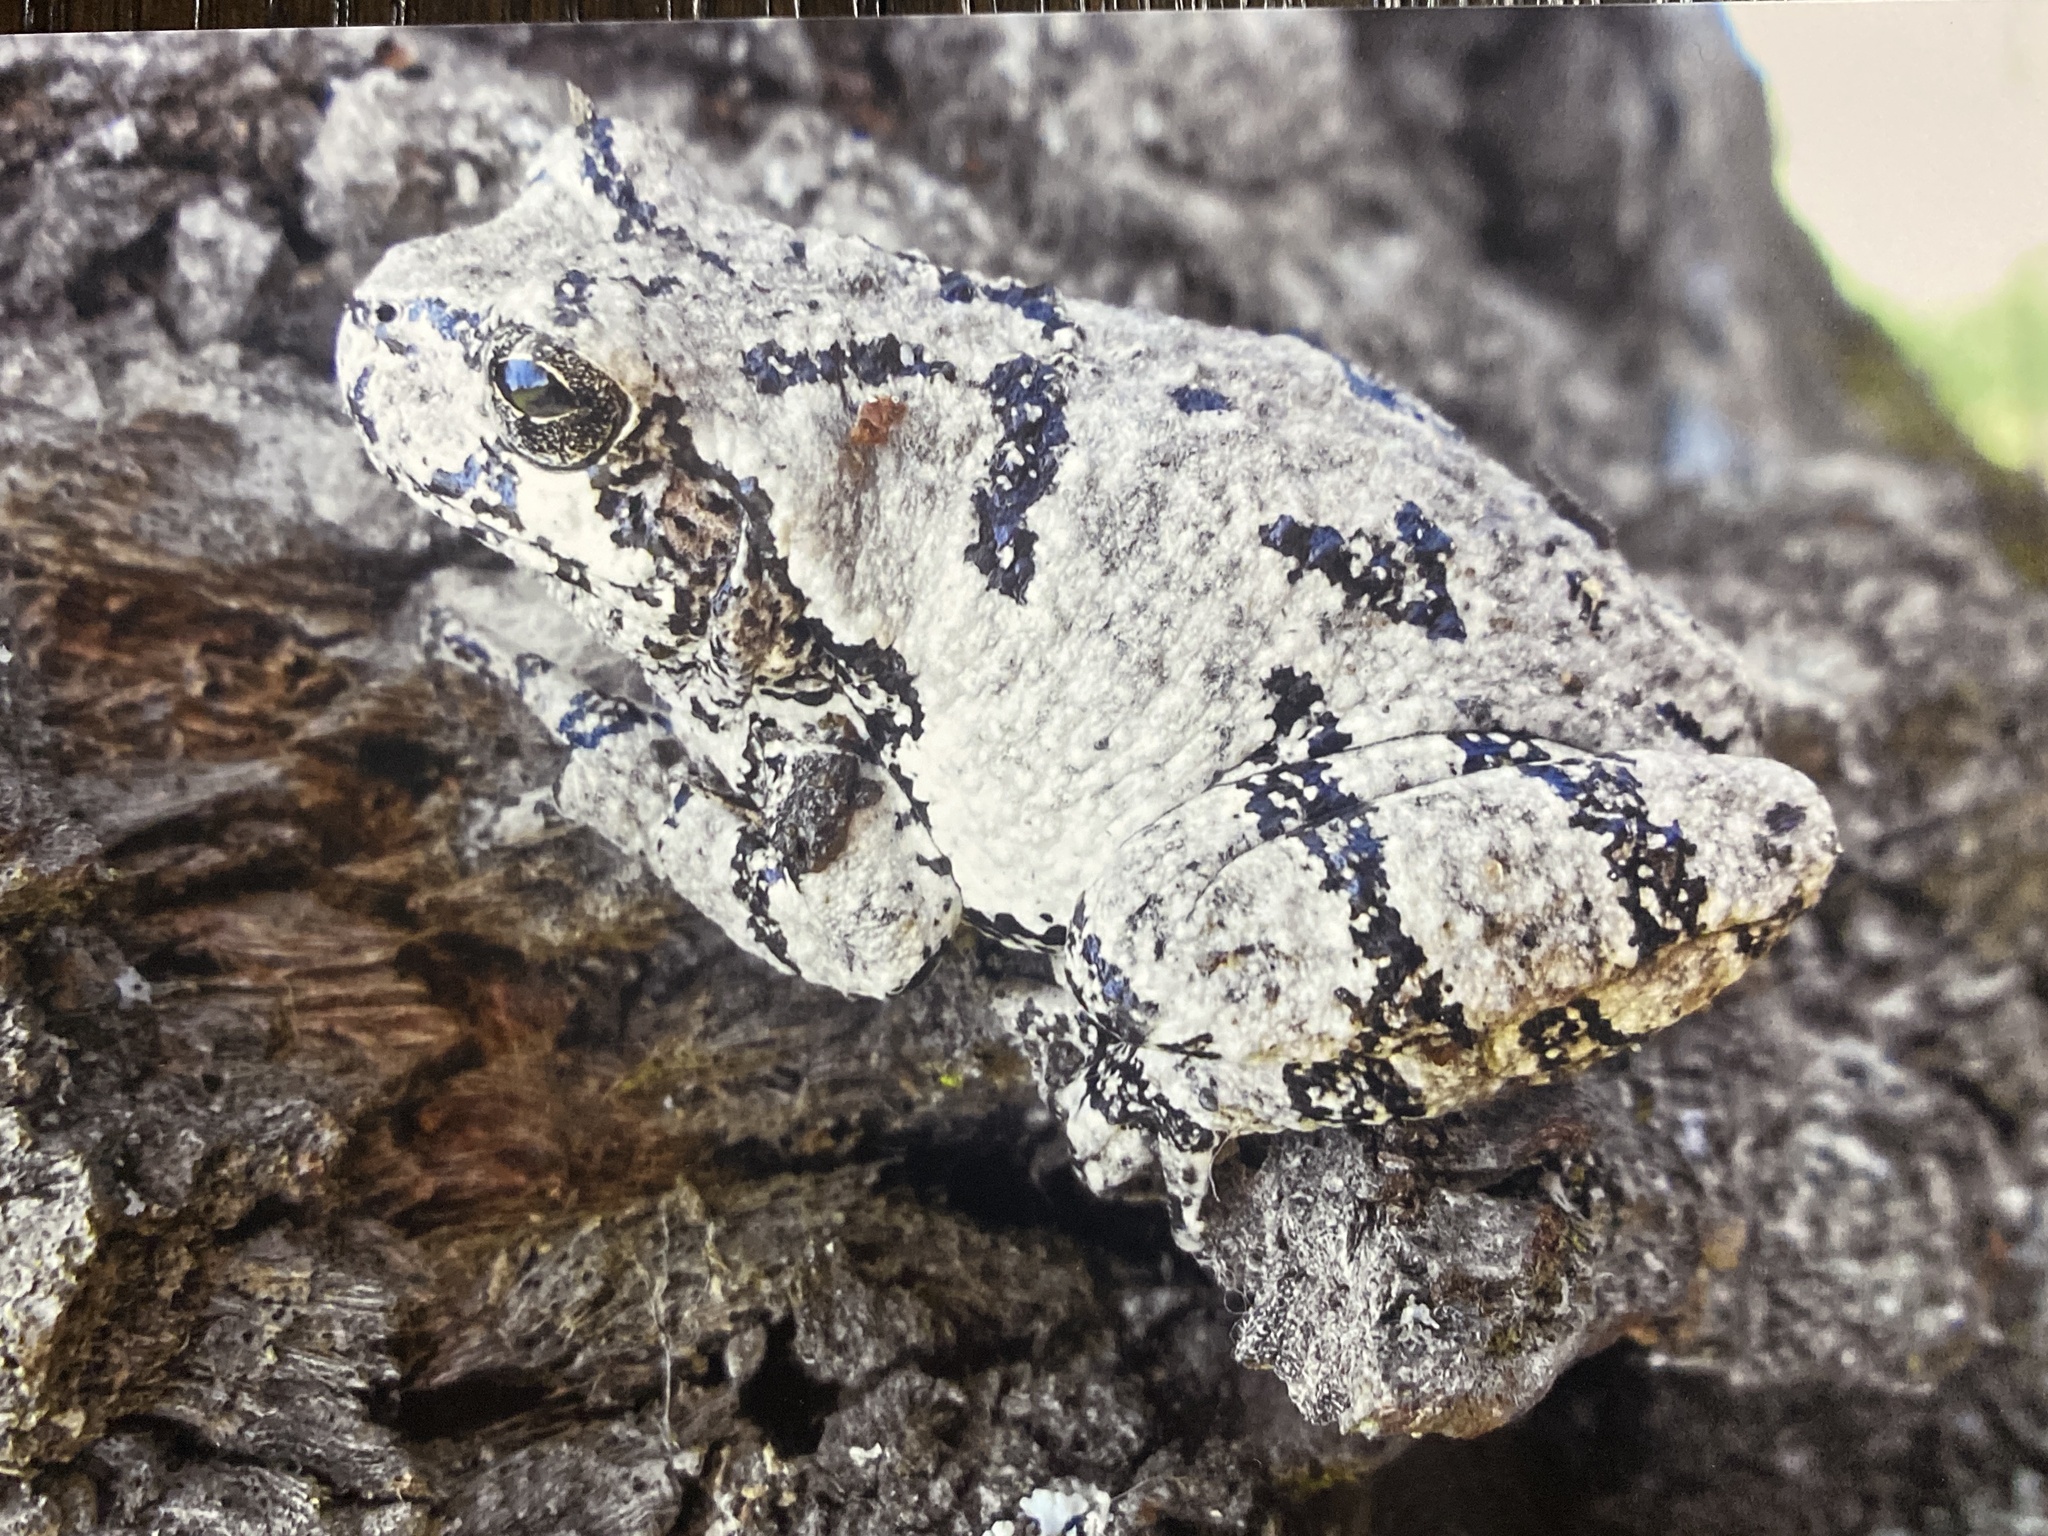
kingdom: Animalia
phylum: Chordata
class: Amphibia
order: Anura
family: Hylidae
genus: Dryophytes
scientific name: Dryophytes versicolor
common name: Gray treefrog
